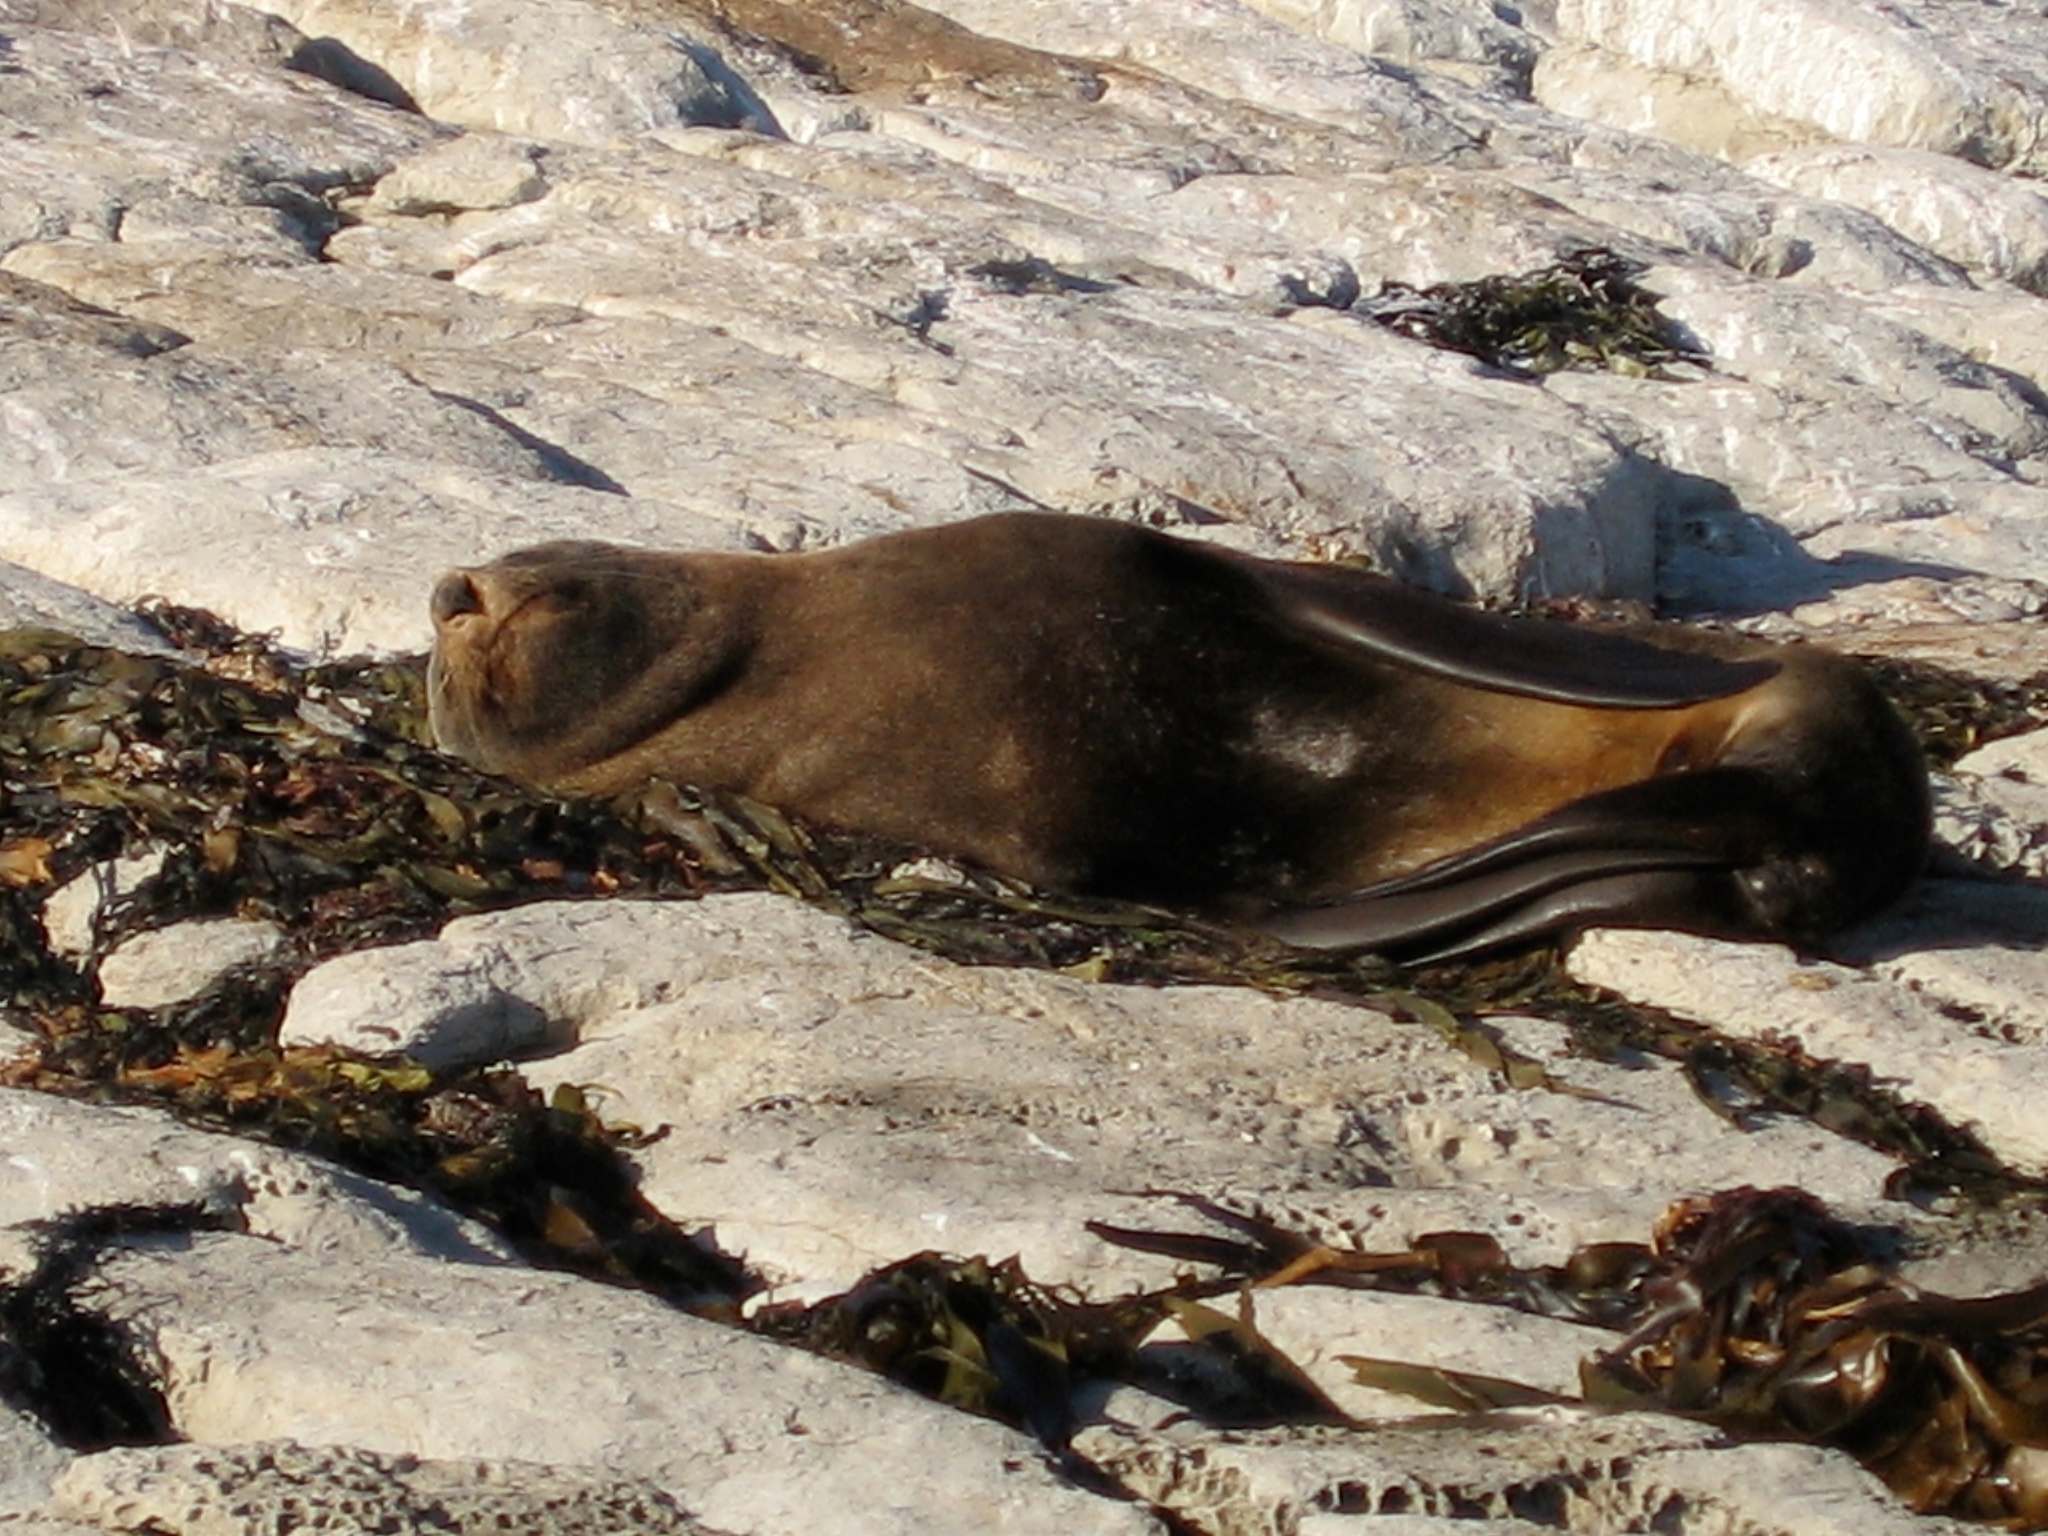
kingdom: Animalia
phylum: Chordata
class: Mammalia
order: Carnivora
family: Otariidae
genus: Arctocephalus
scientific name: Arctocephalus forsteri
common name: New zealand fur seal
